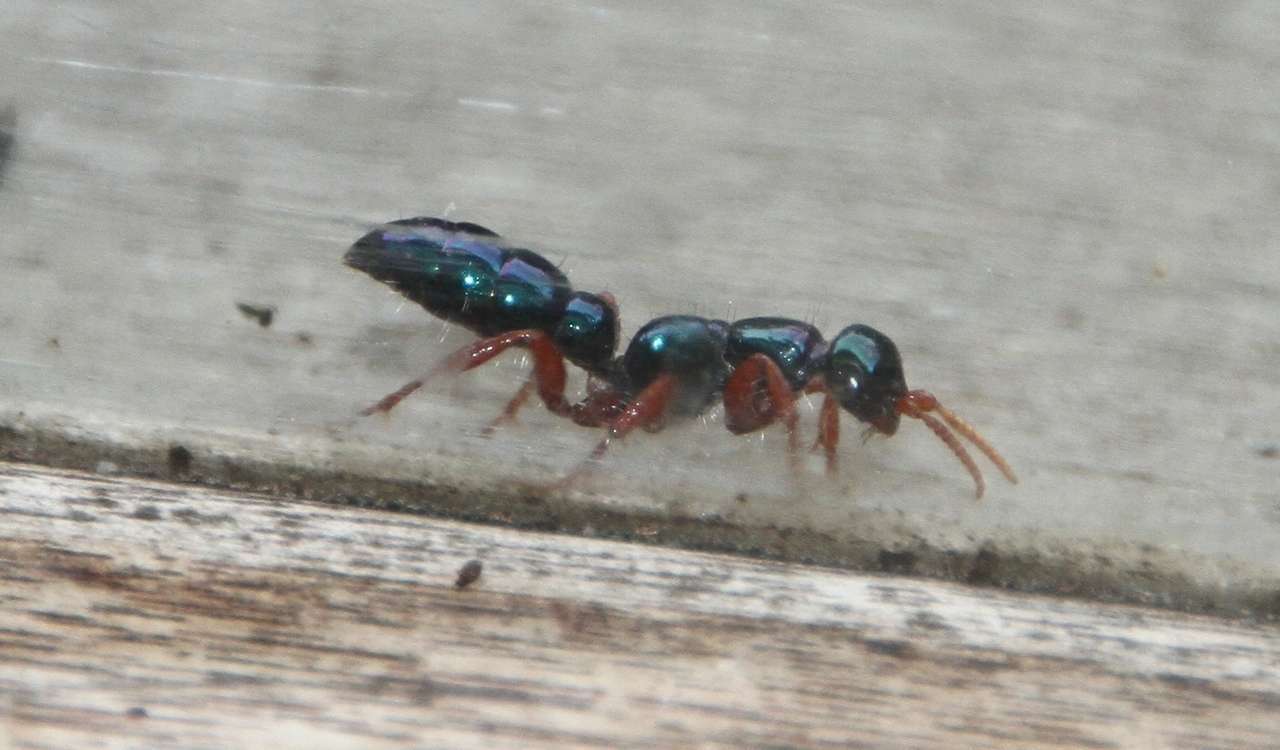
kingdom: Animalia
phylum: Arthropoda
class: Insecta
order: Hymenoptera
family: Tiphiidae
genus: Diamma
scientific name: Diamma
